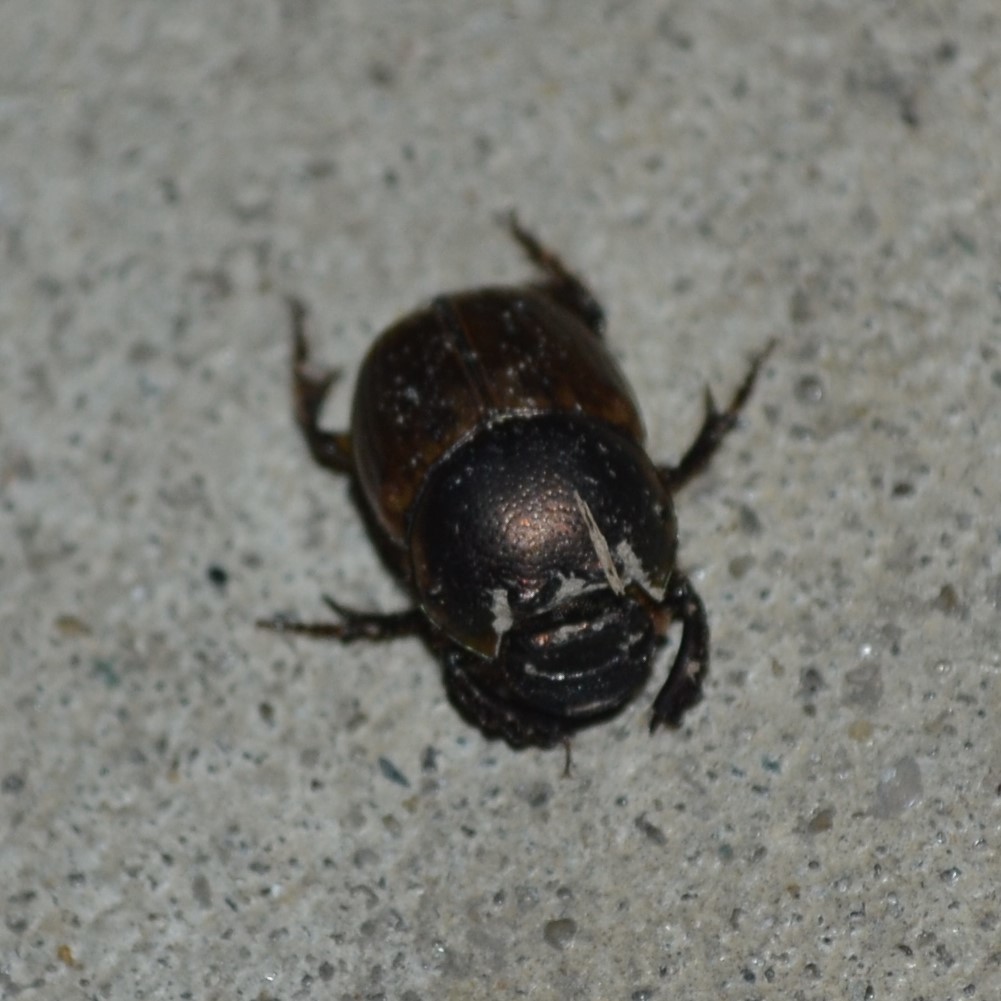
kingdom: Animalia
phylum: Arthropoda
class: Insecta
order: Coleoptera
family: Scarabaeidae
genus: Digitonthophagus
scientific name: Digitonthophagus gazella
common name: Brown dung beetle
